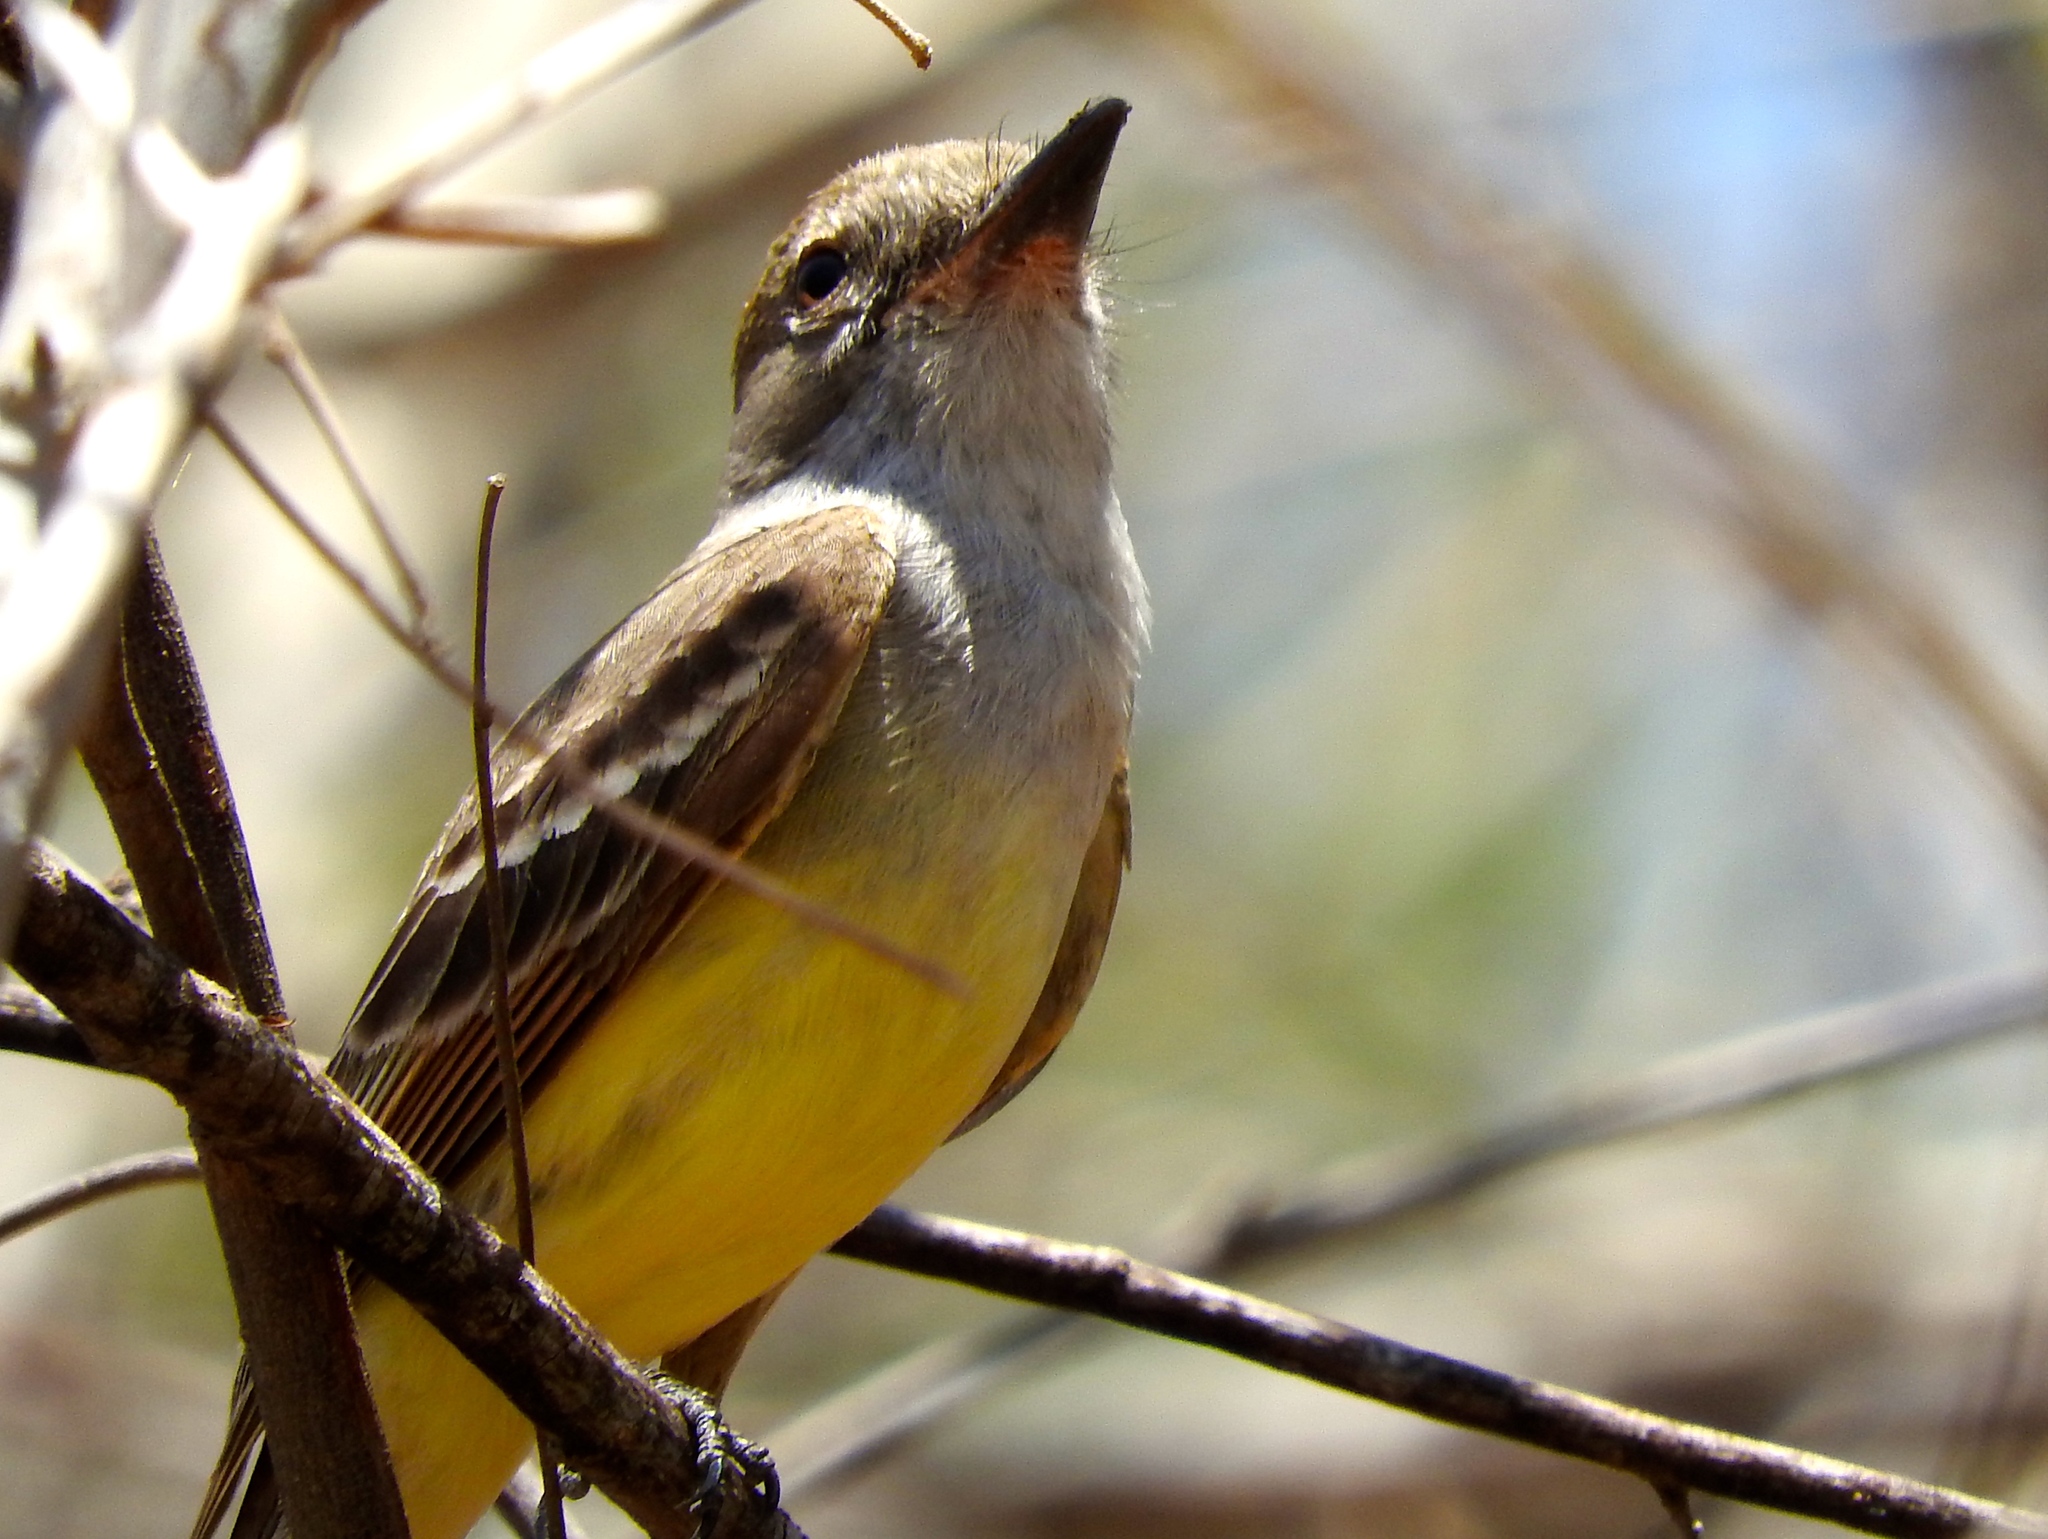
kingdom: Animalia
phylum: Chordata
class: Aves
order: Passeriformes
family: Tyrannidae
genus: Myiarchus
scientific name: Myiarchus tyrannulus
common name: Brown-crested flycatcher
